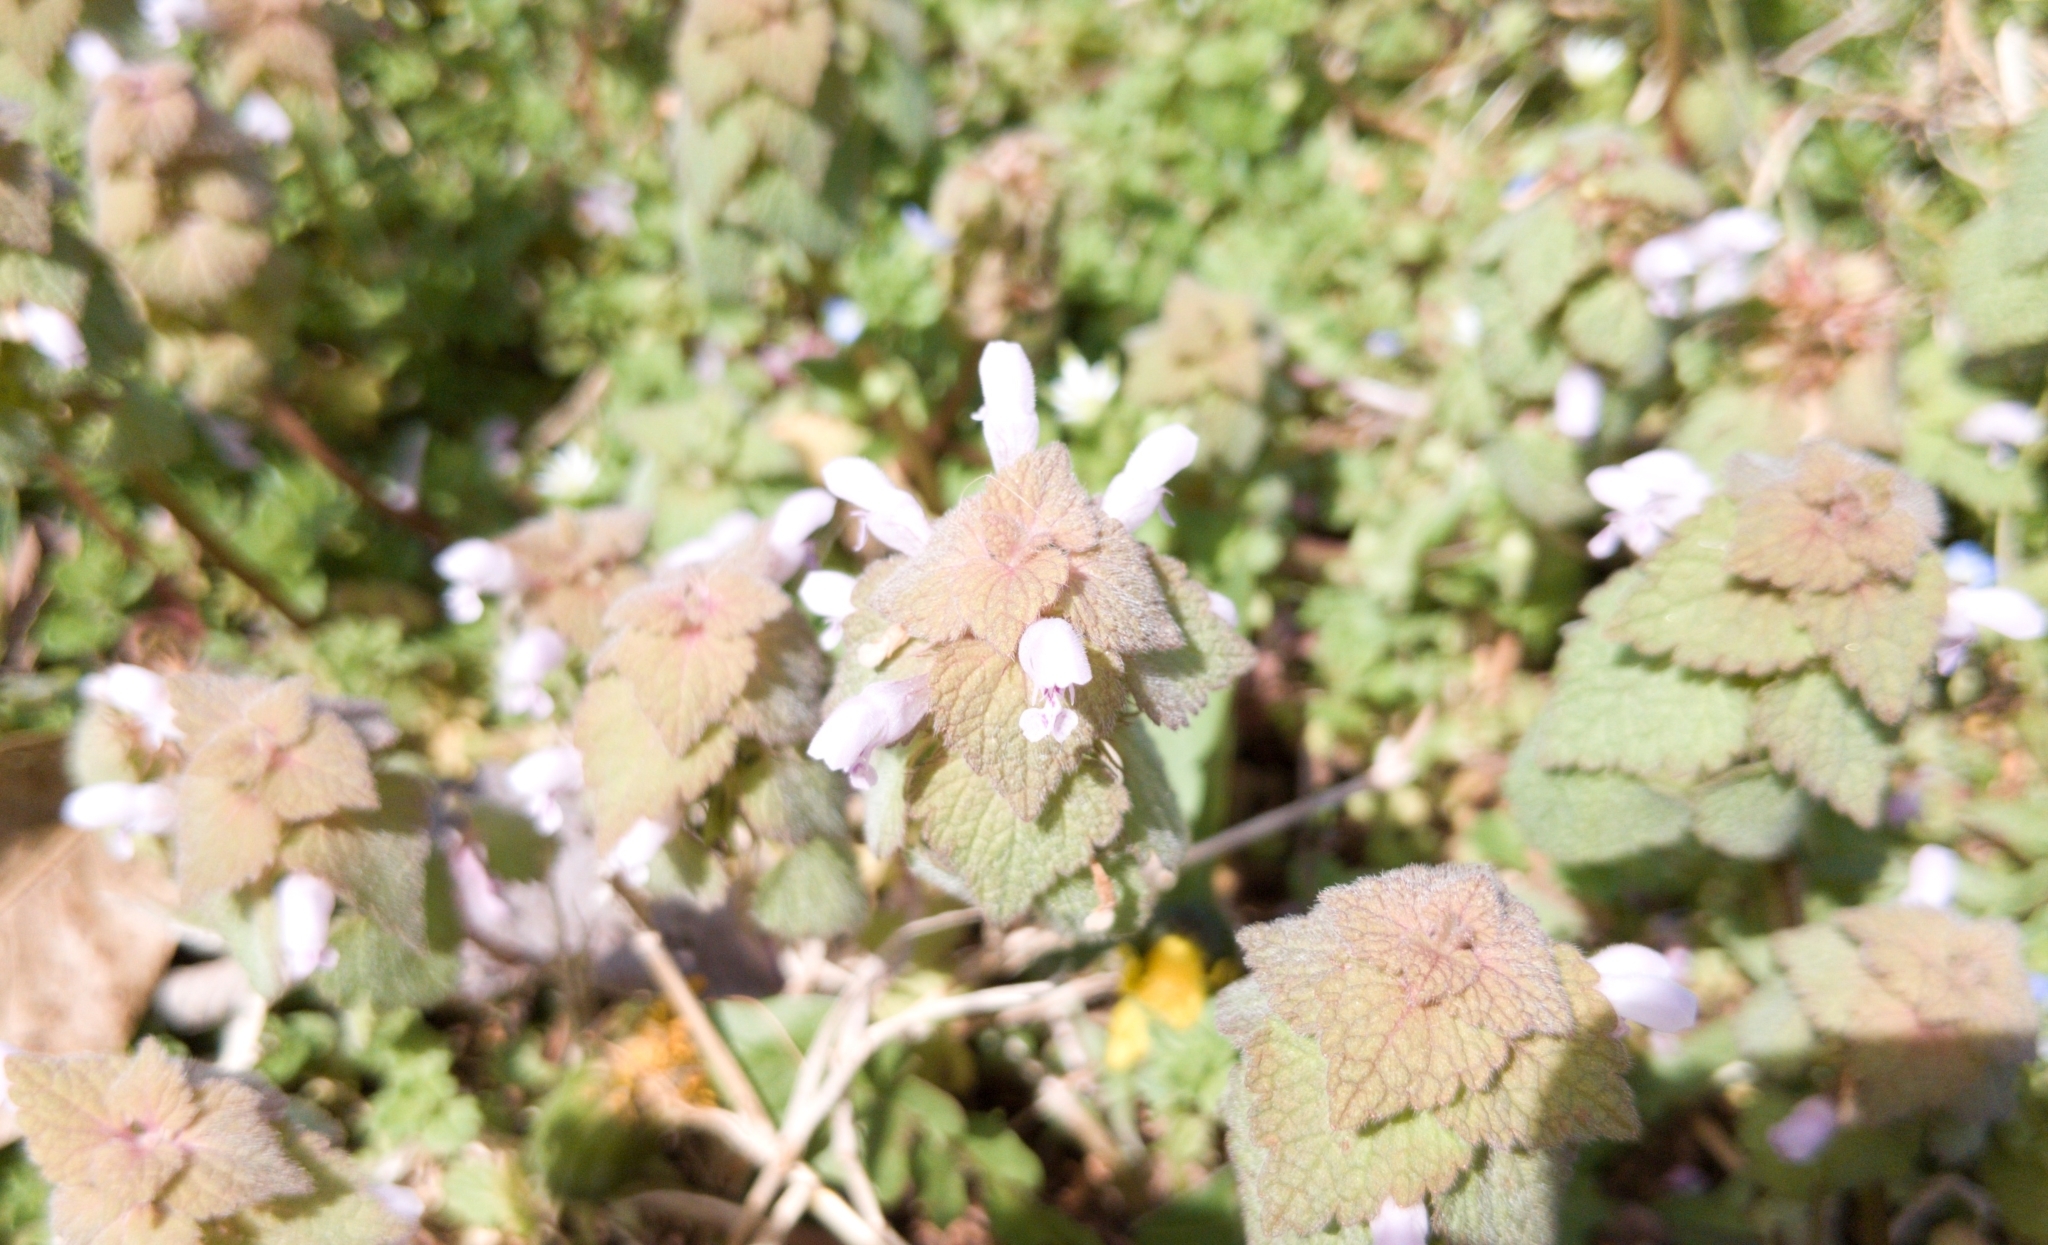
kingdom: Plantae
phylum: Tracheophyta
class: Magnoliopsida
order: Lamiales
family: Lamiaceae
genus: Lamium
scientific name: Lamium purpureum
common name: Red dead-nettle
